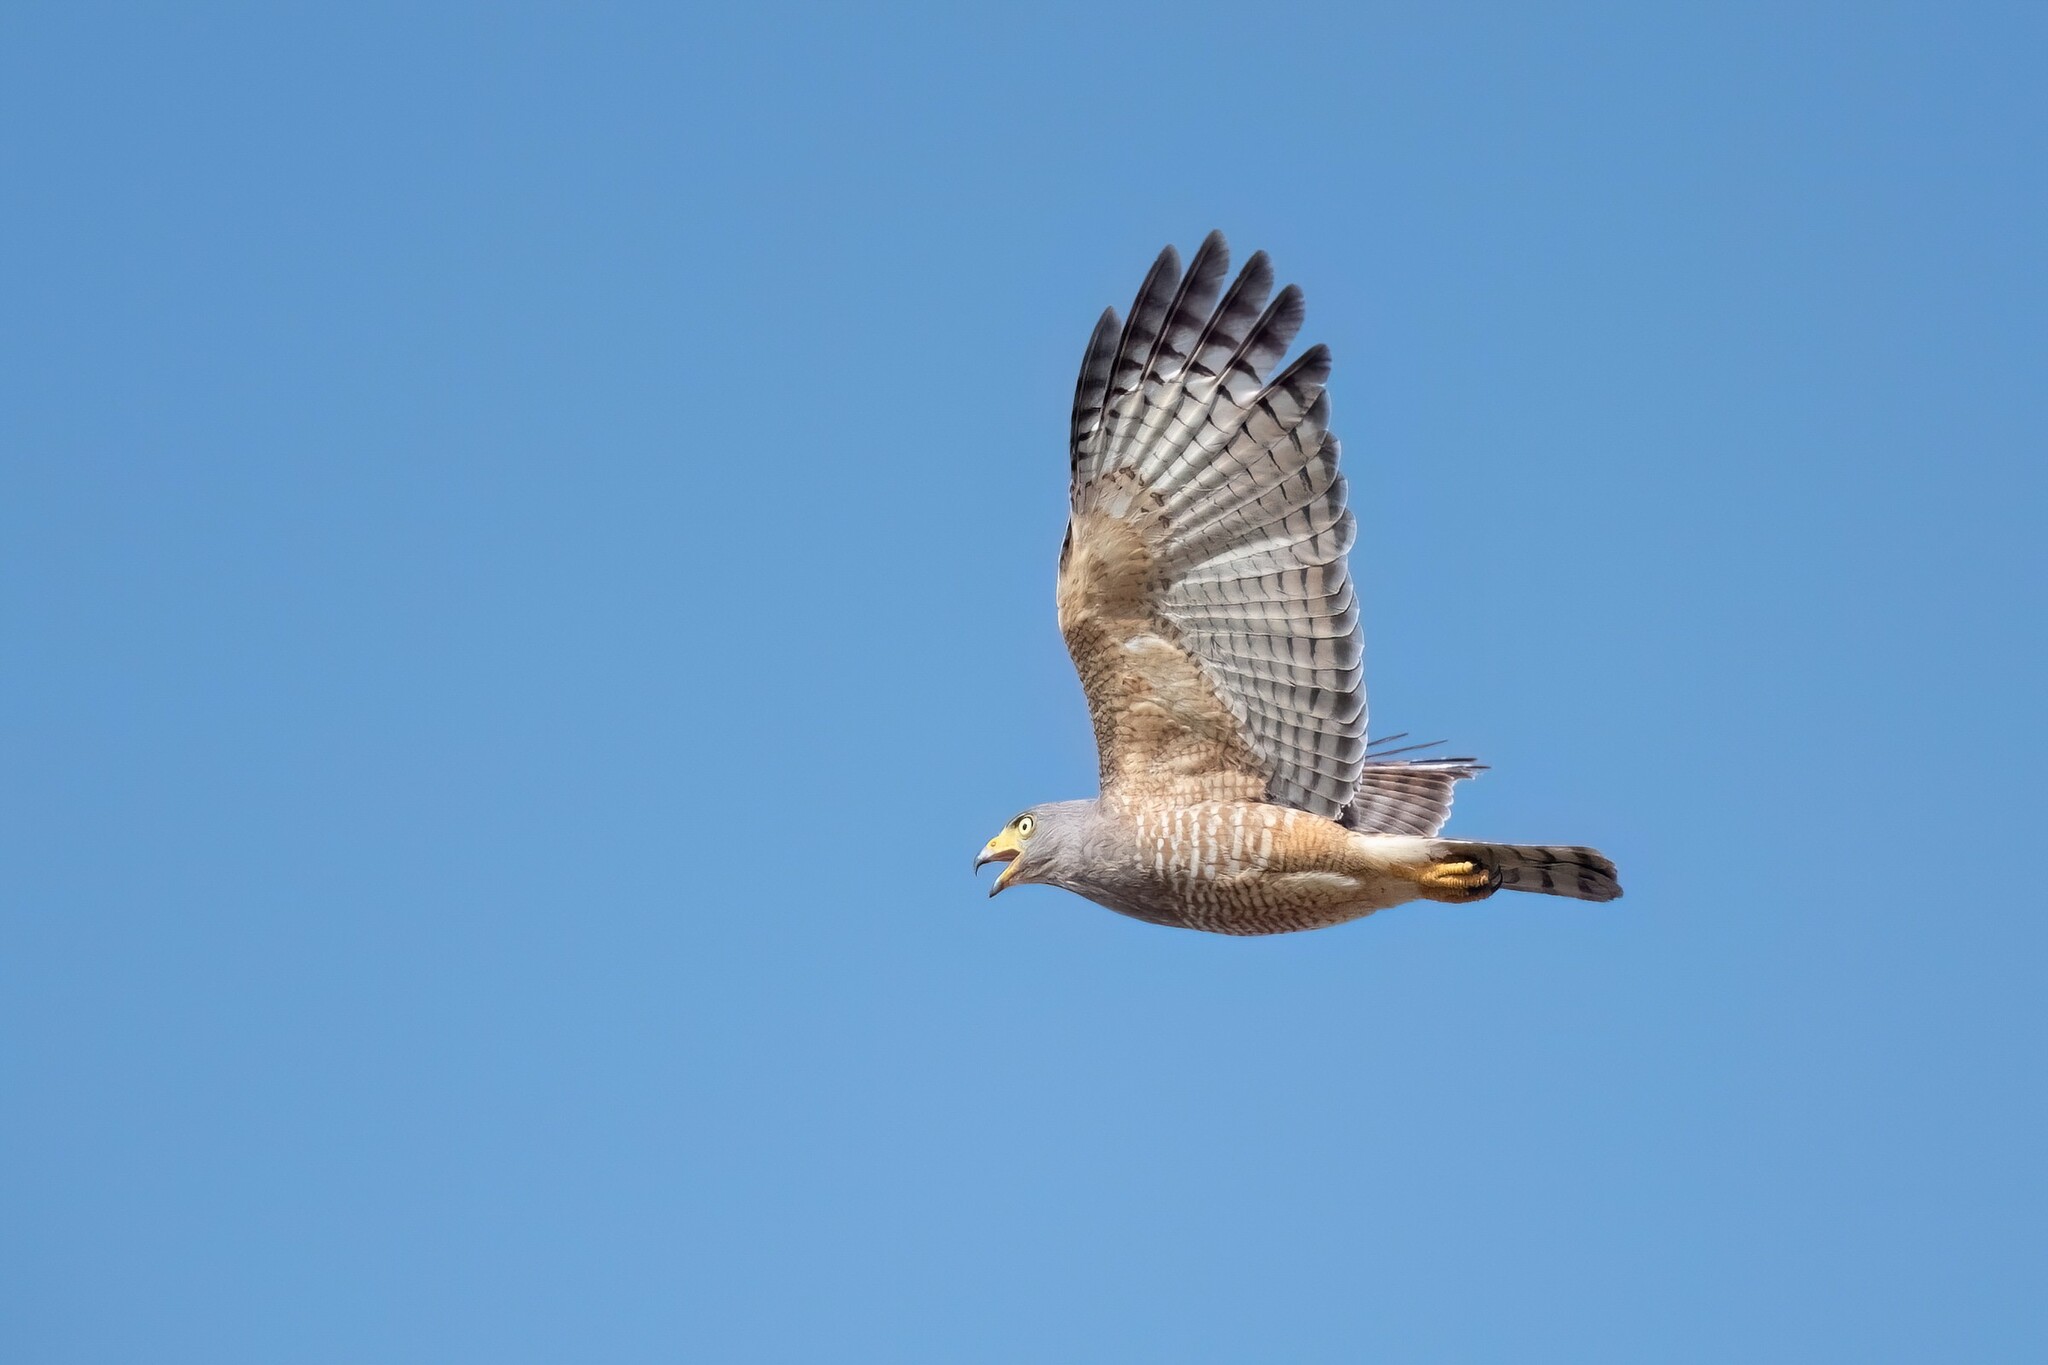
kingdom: Animalia
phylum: Chordata
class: Aves
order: Accipitriformes
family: Accipitridae
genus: Rupornis
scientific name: Rupornis magnirostris
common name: Roadside hawk
